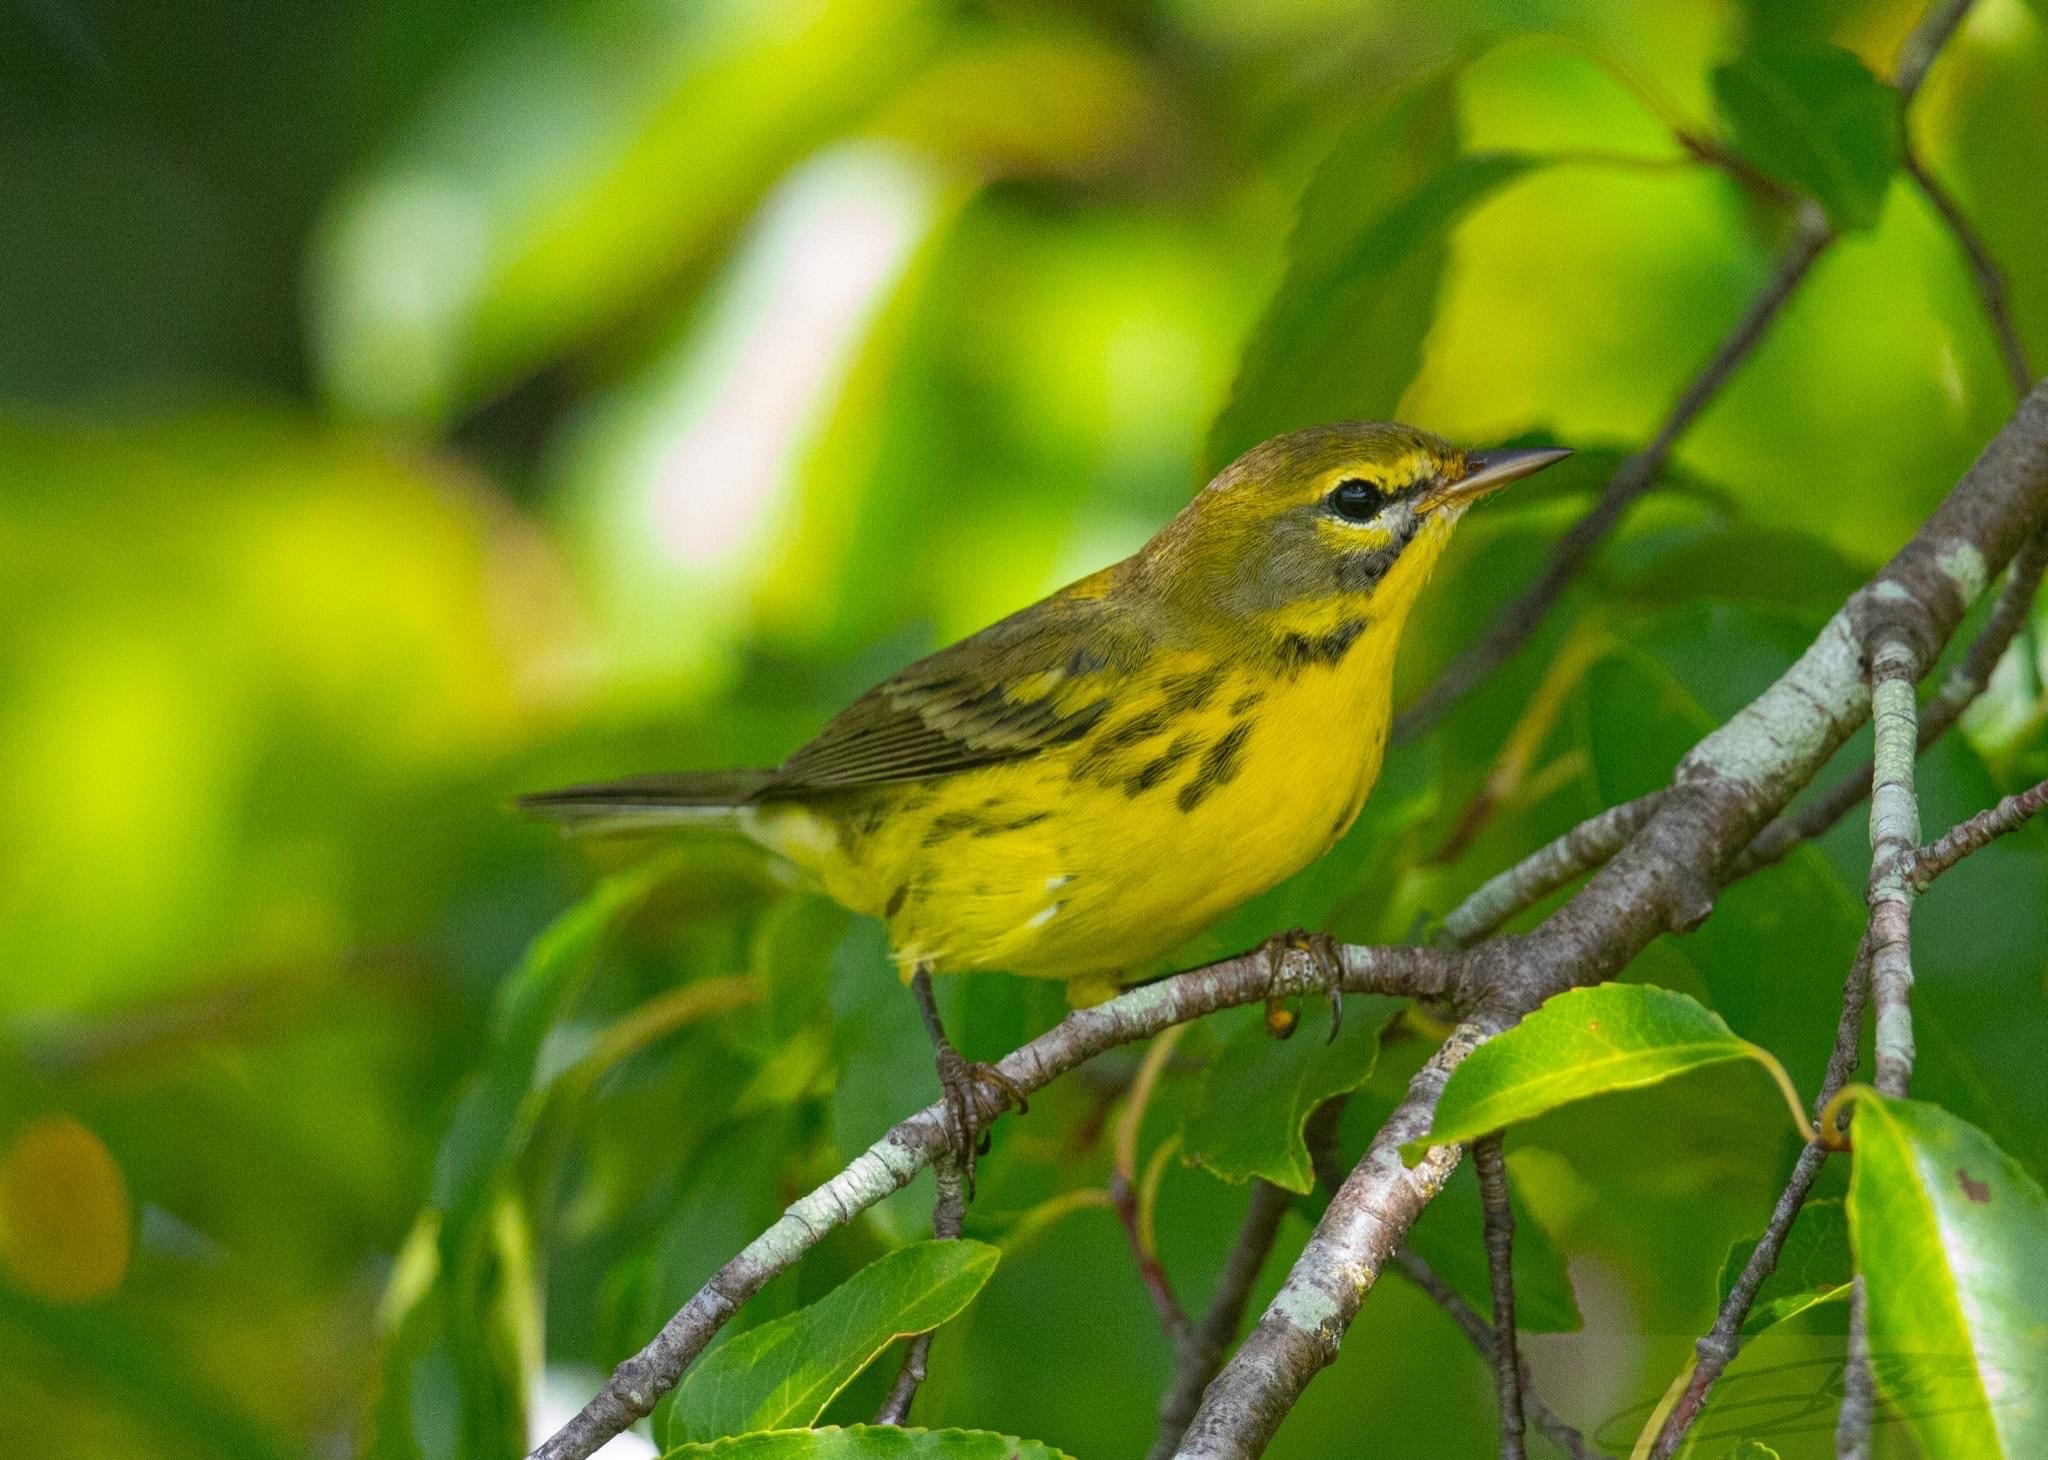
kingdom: Animalia
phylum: Chordata
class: Aves
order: Passeriformes
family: Parulidae
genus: Setophaga
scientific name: Setophaga discolor
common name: Prairie warbler
